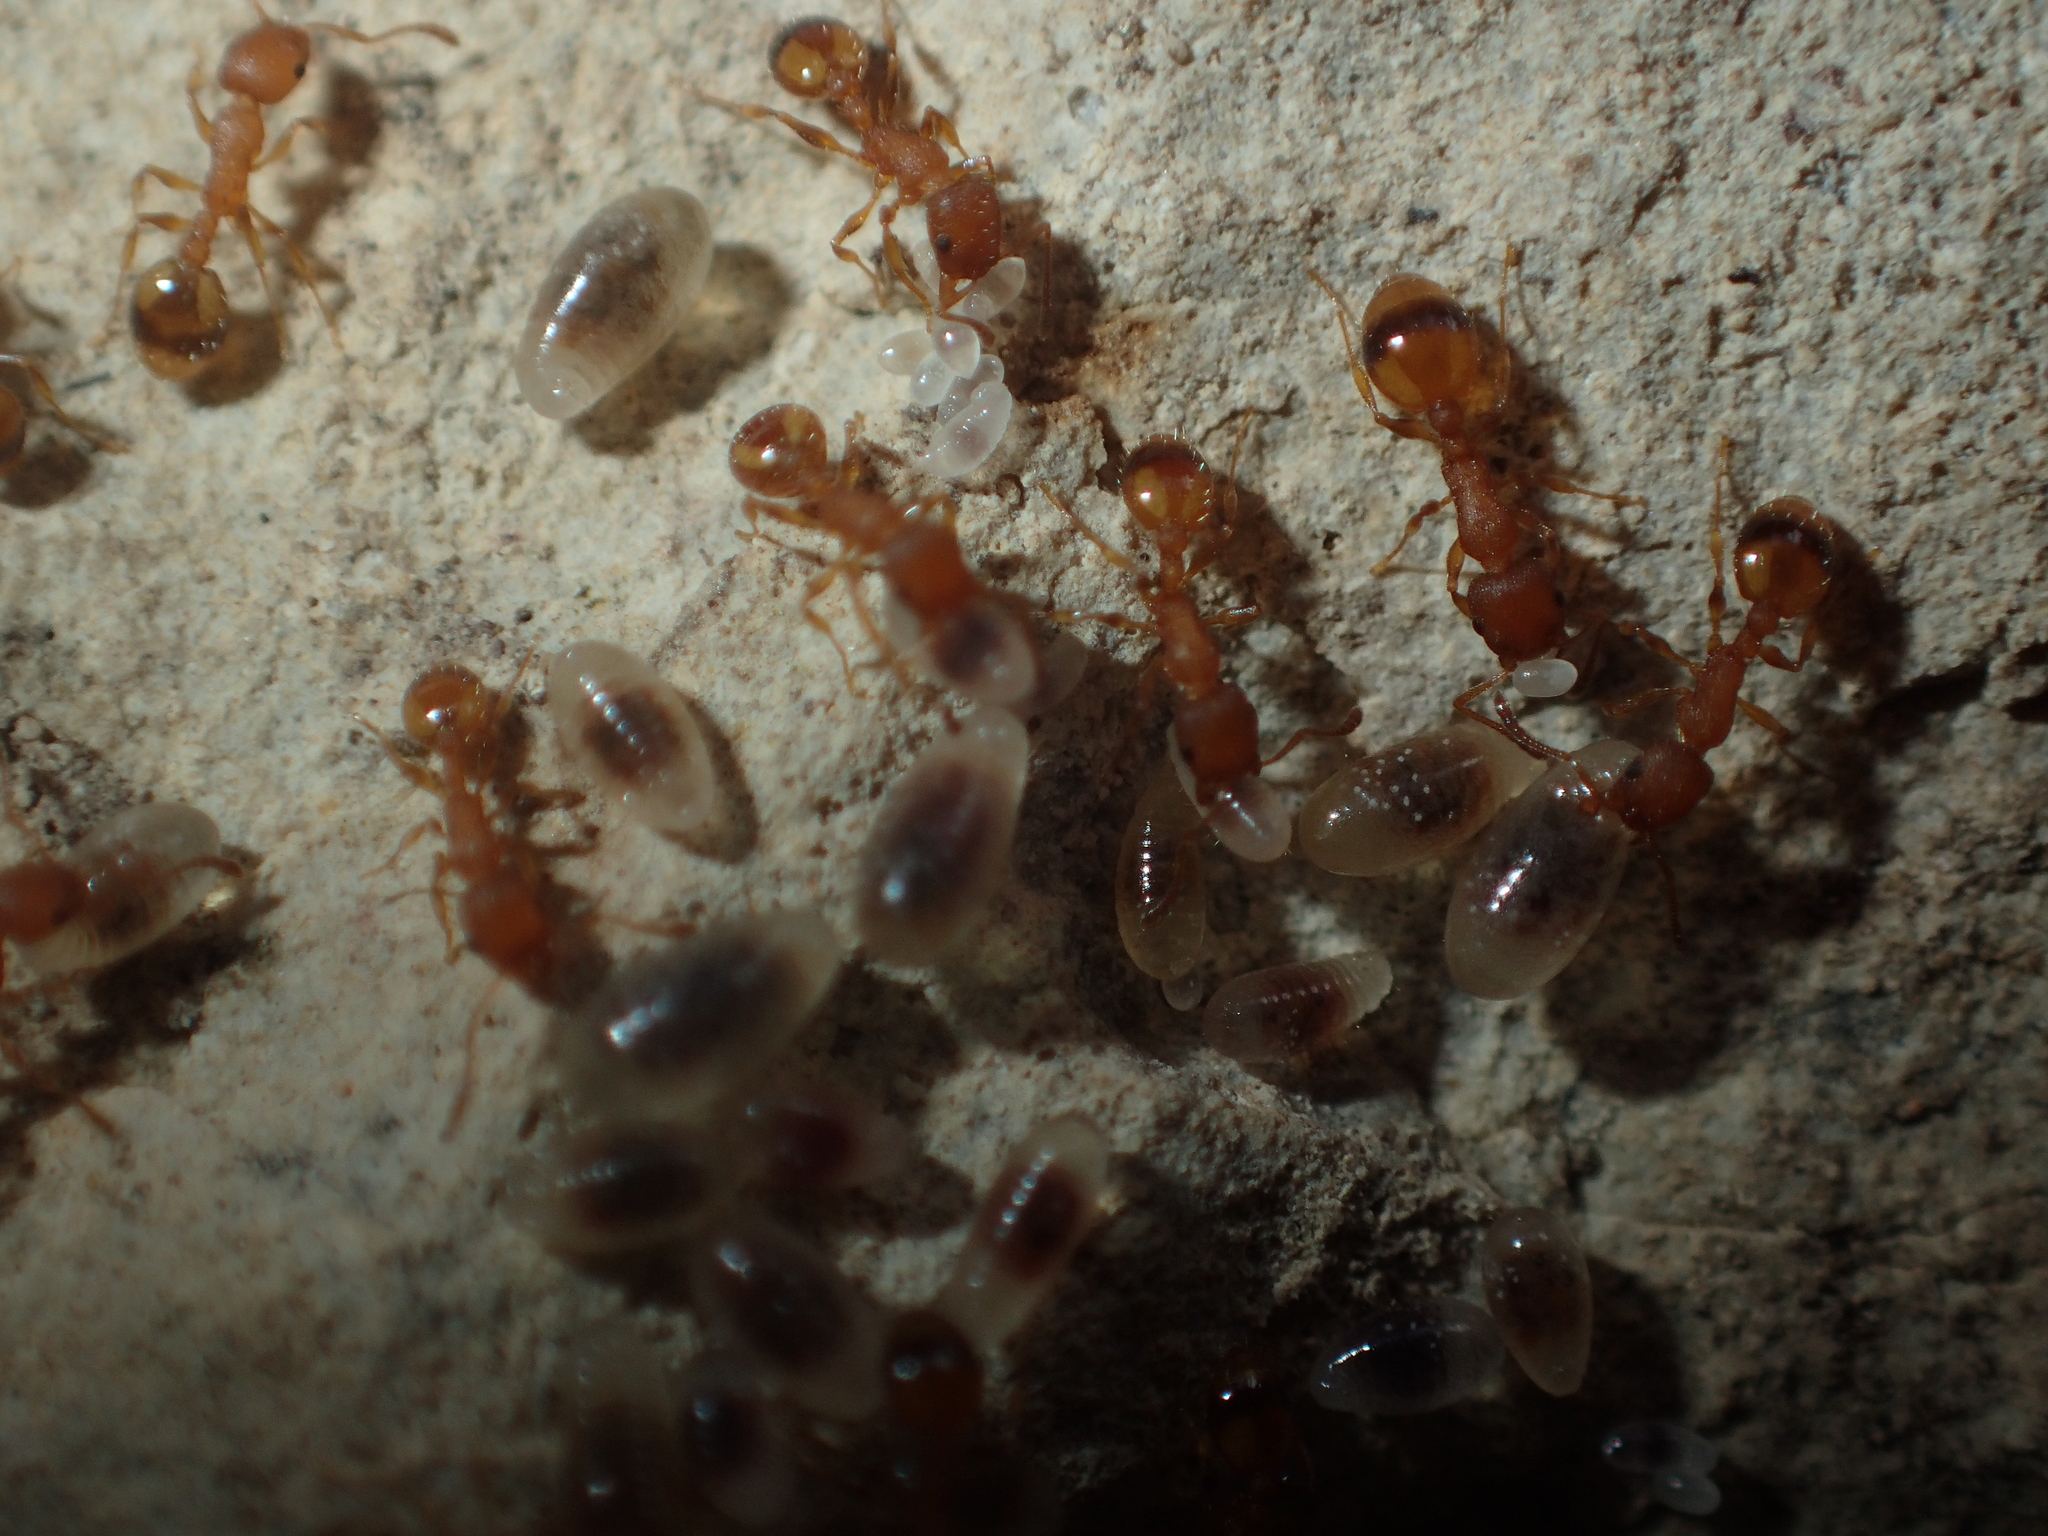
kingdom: Animalia
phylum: Arthropoda
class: Insecta
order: Hymenoptera
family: Formicidae
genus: Leptothorax
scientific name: Leptothorax unifasciatus
